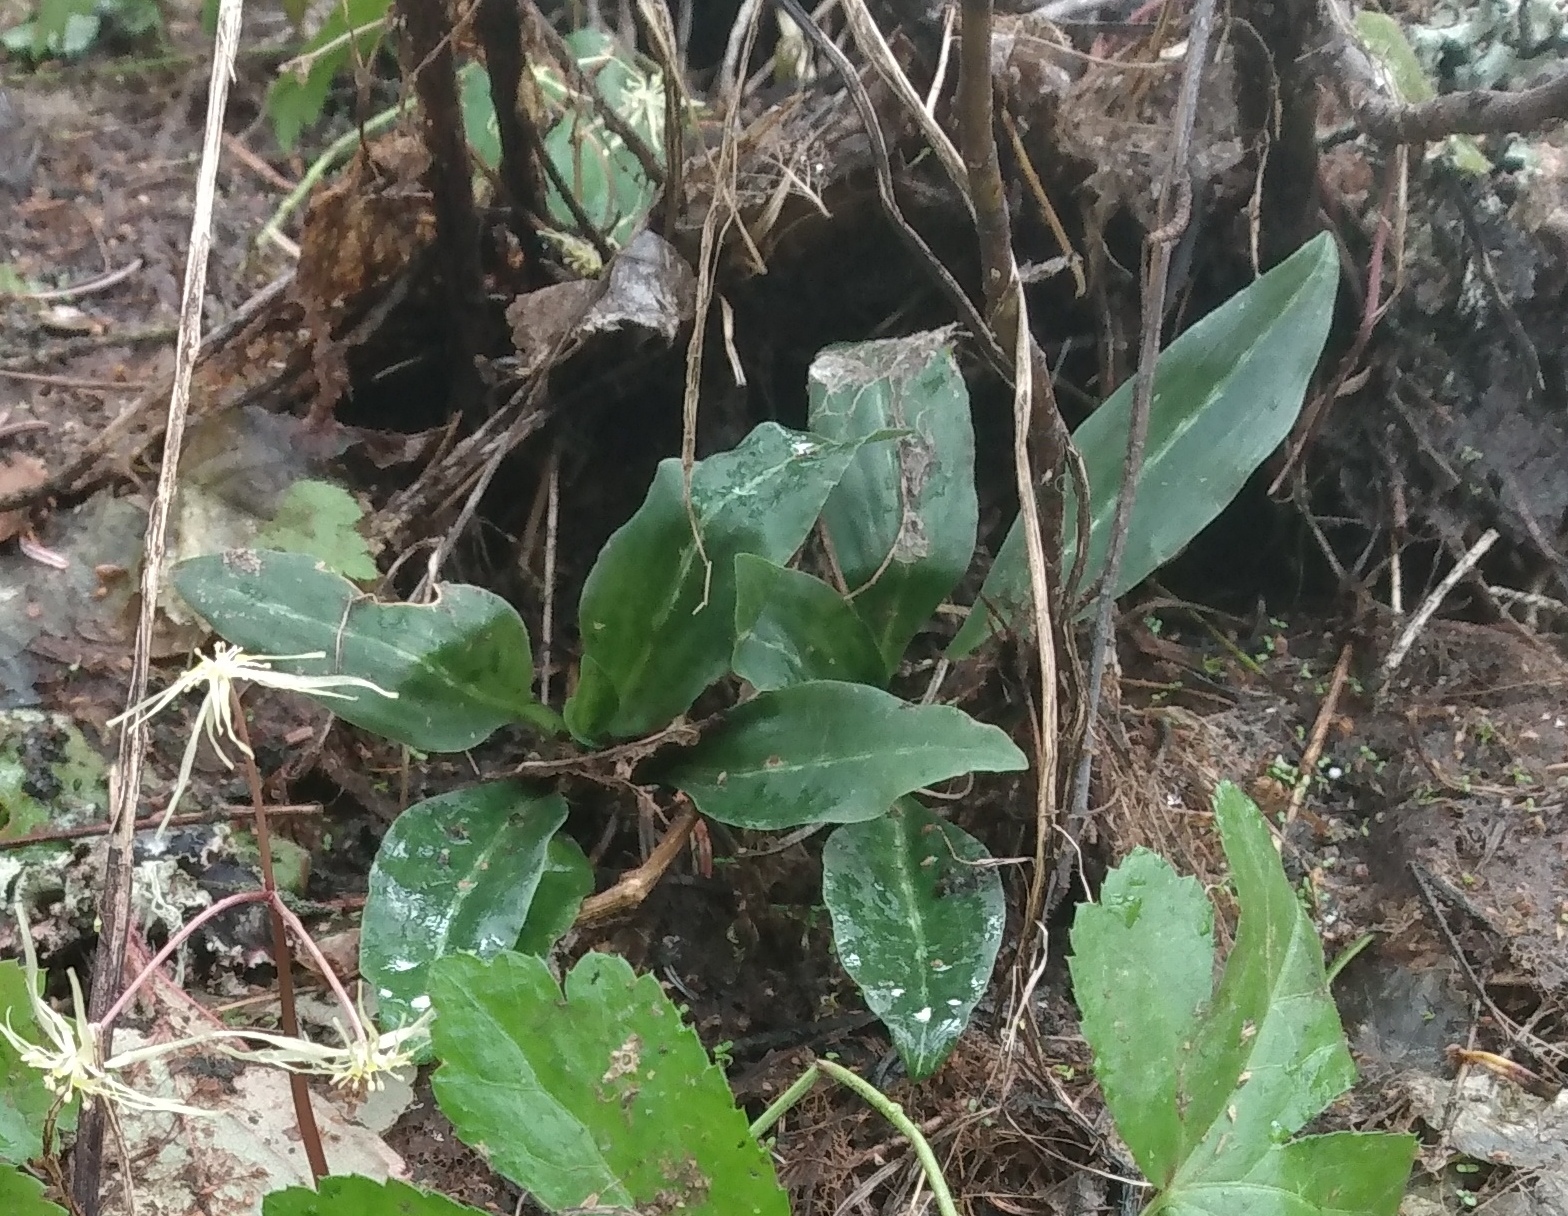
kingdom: Plantae
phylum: Tracheophyta
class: Liliopsida
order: Asparagales
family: Orchidaceae
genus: Goodyera
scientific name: Goodyera oblongifolia
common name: Giant rattlesnake-plantain
